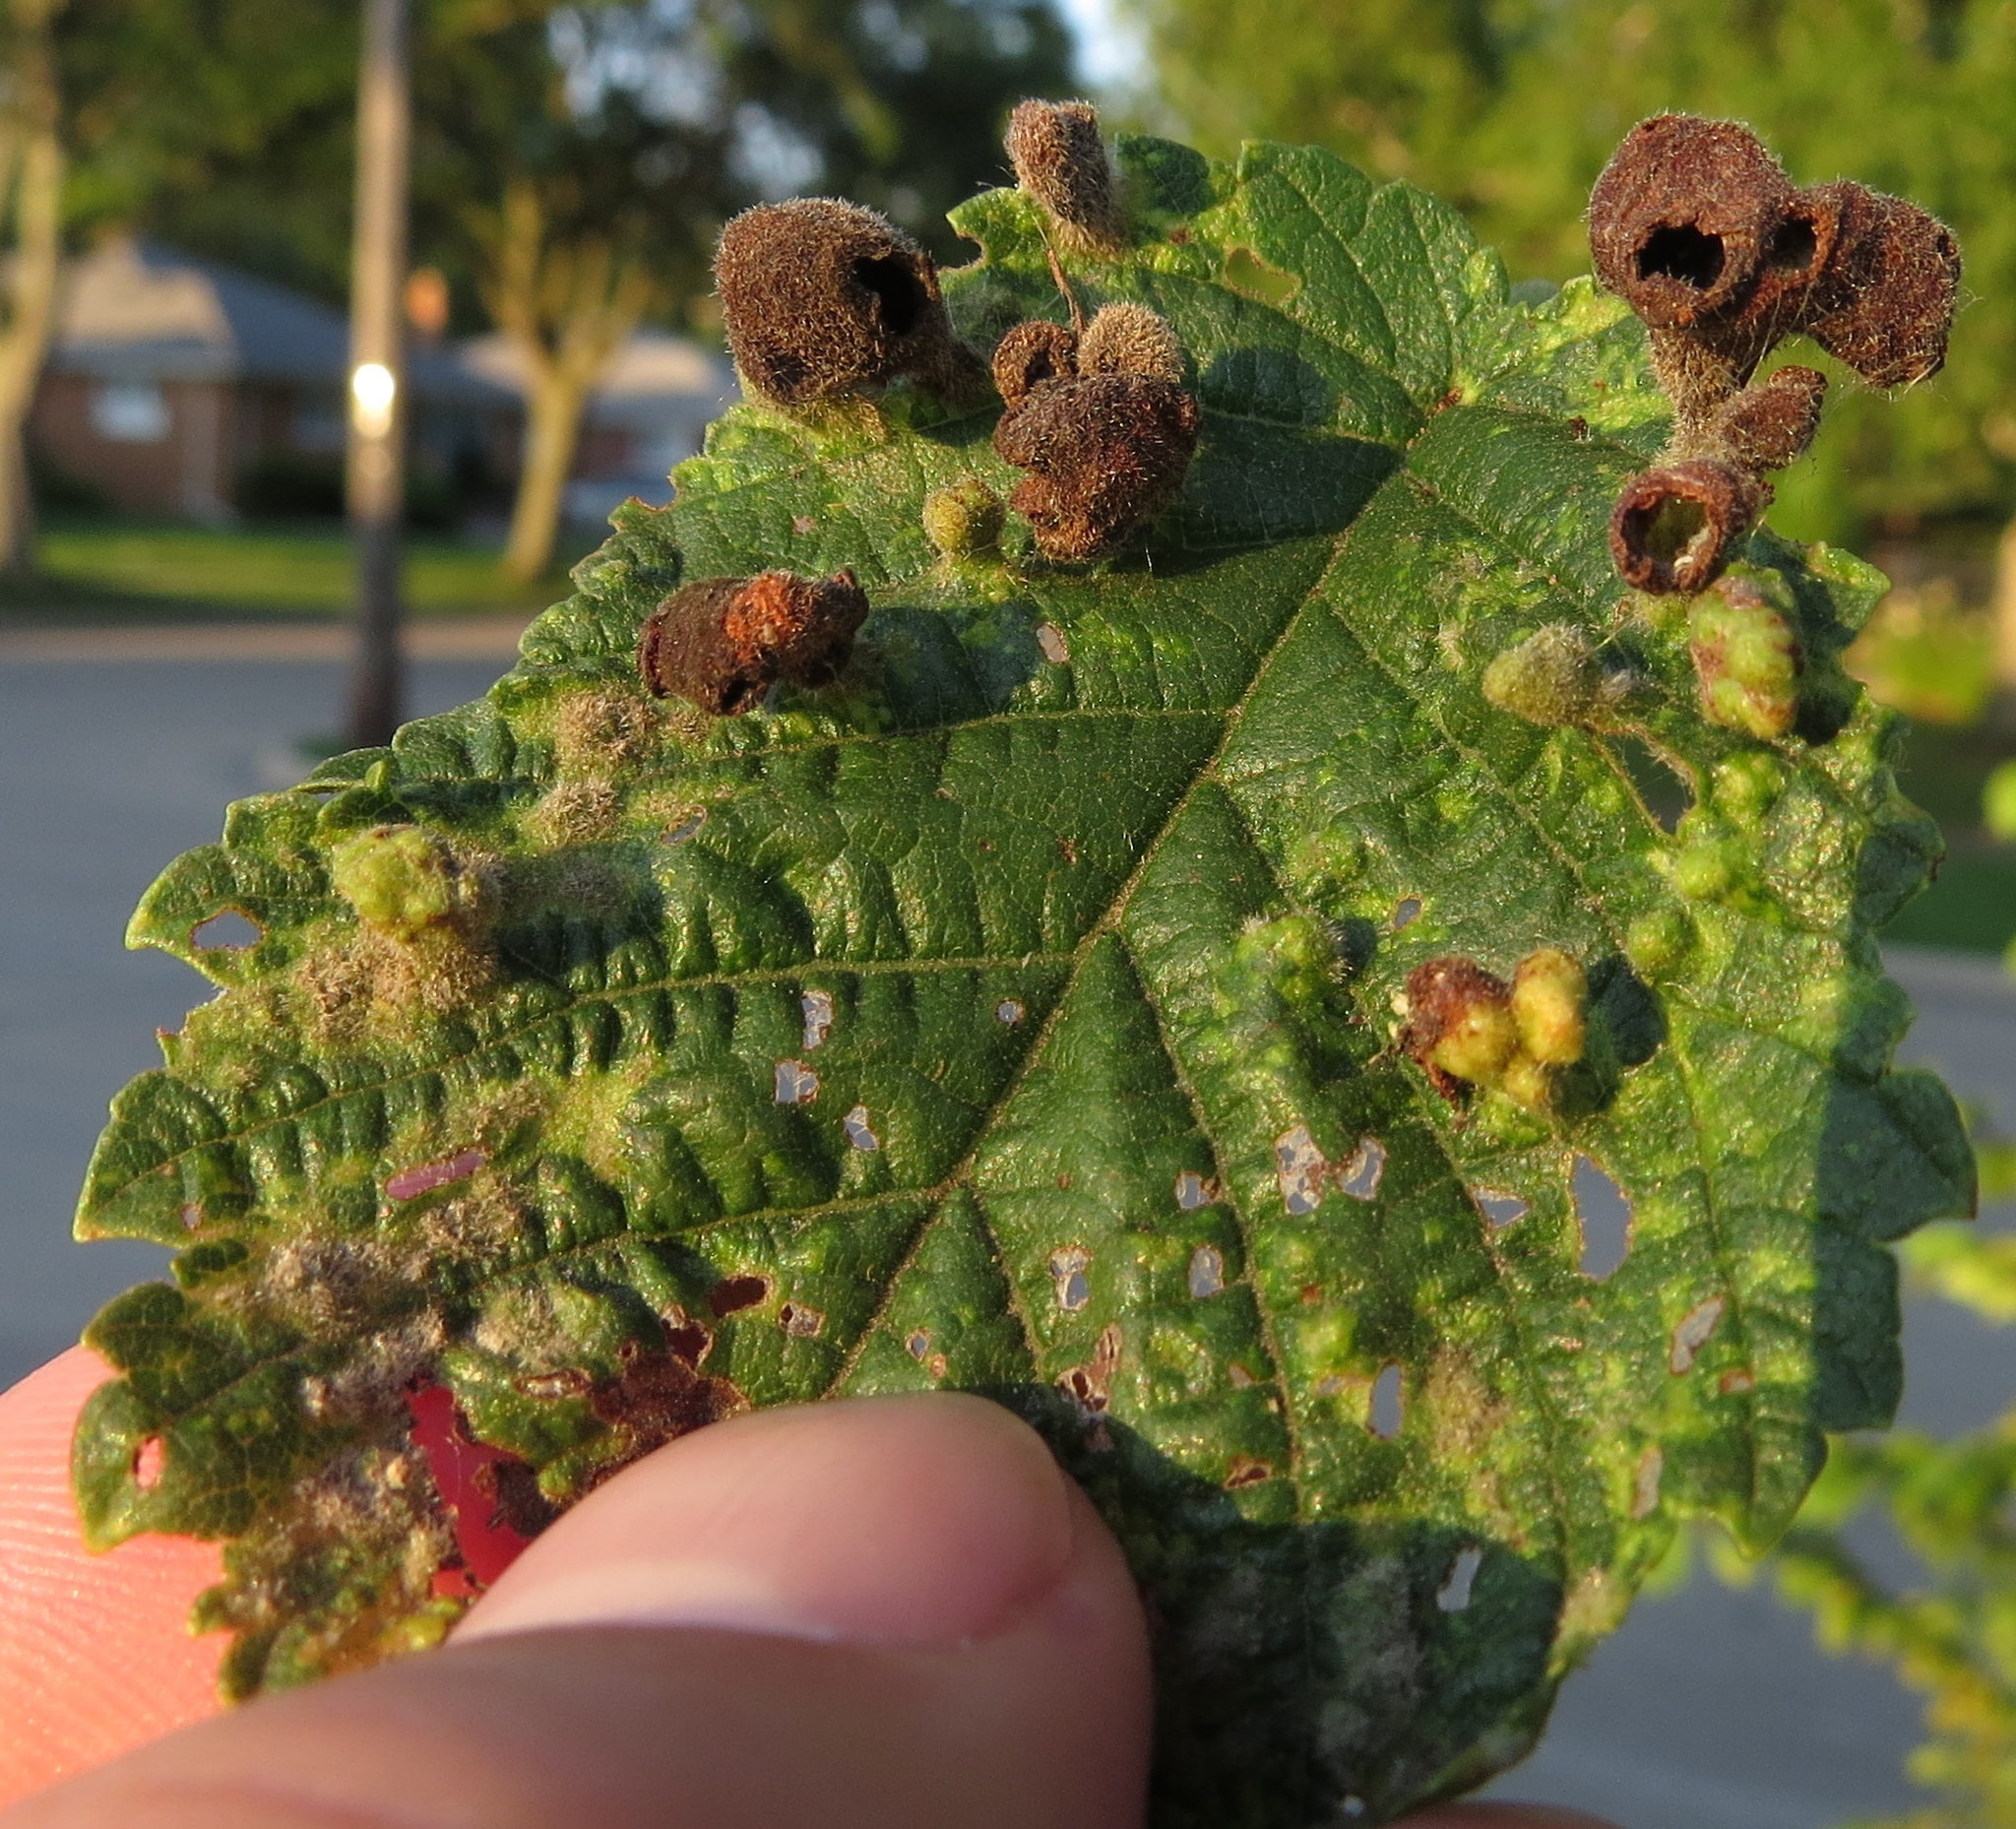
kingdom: Animalia
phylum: Arthropoda
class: Insecta
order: Hemiptera
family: Aphididae
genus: Tetraneura
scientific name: Tetraneura nigriabdominalis
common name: Aphid
